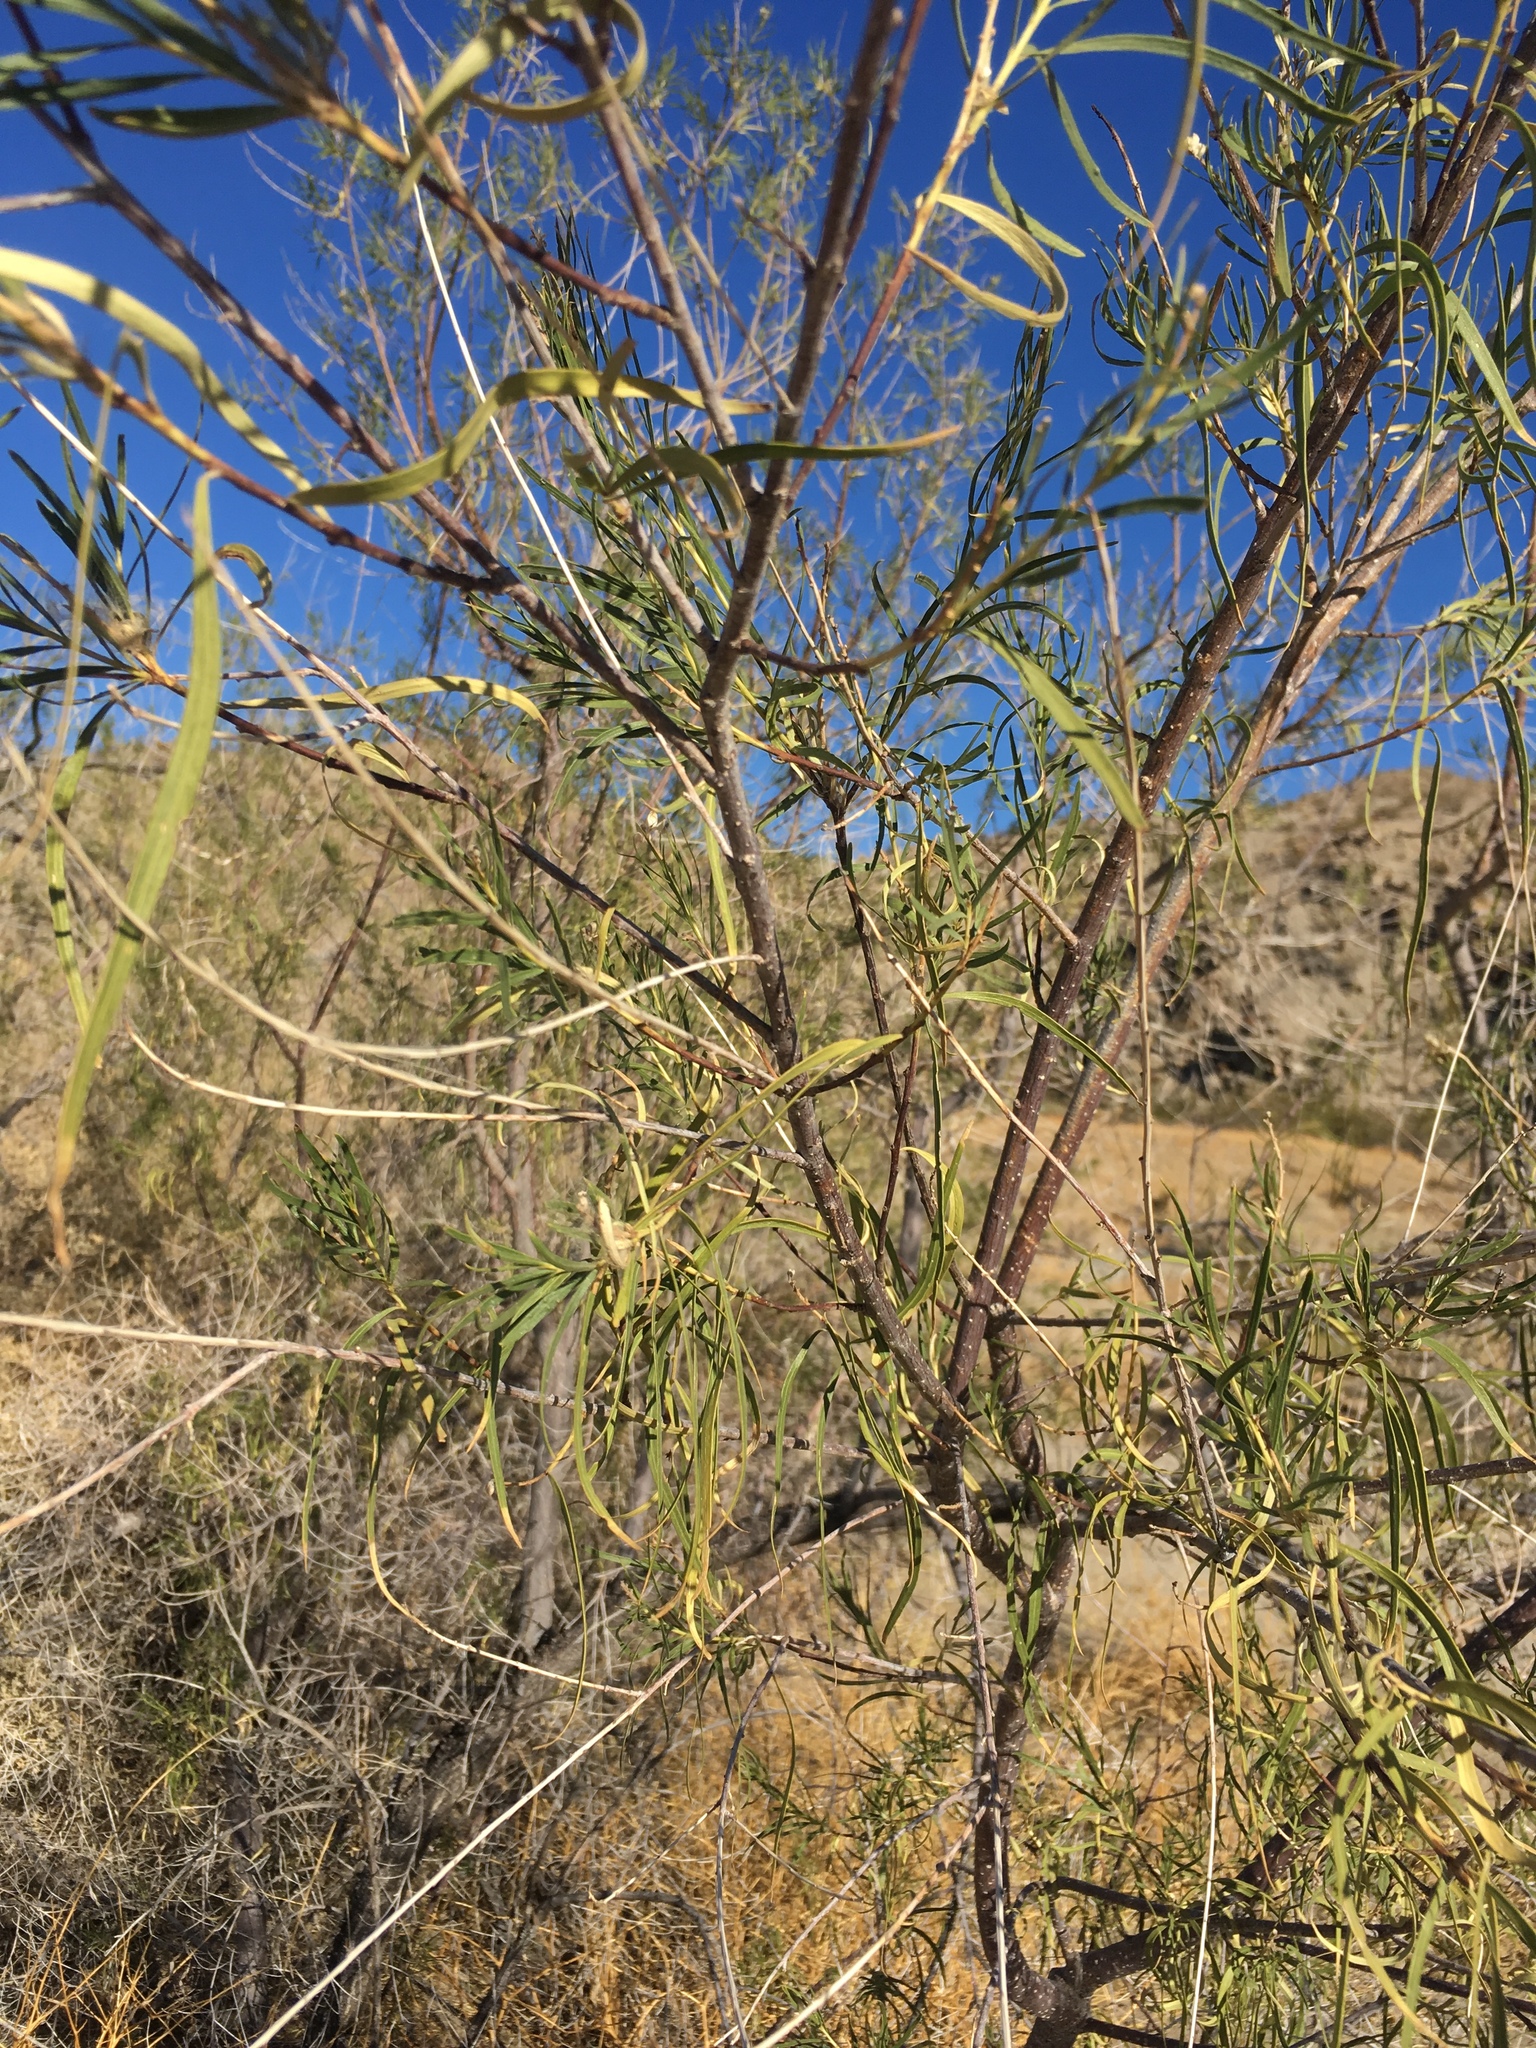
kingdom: Plantae
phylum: Tracheophyta
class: Magnoliopsida
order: Lamiales
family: Bignoniaceae
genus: Chilopsis
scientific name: Chilopsis linearis
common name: Desert-willow
